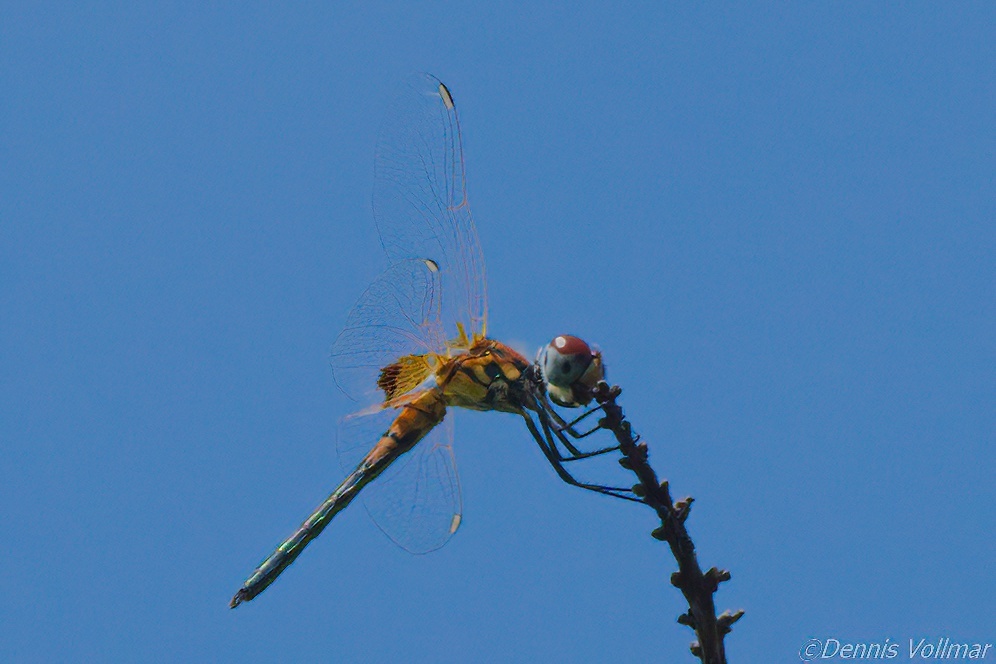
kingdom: Animalia
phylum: Arthropoda
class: Insecta
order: Odonata
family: Libellulidae
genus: Celithemis
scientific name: Celithemis bertha
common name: Red-veined pennant
